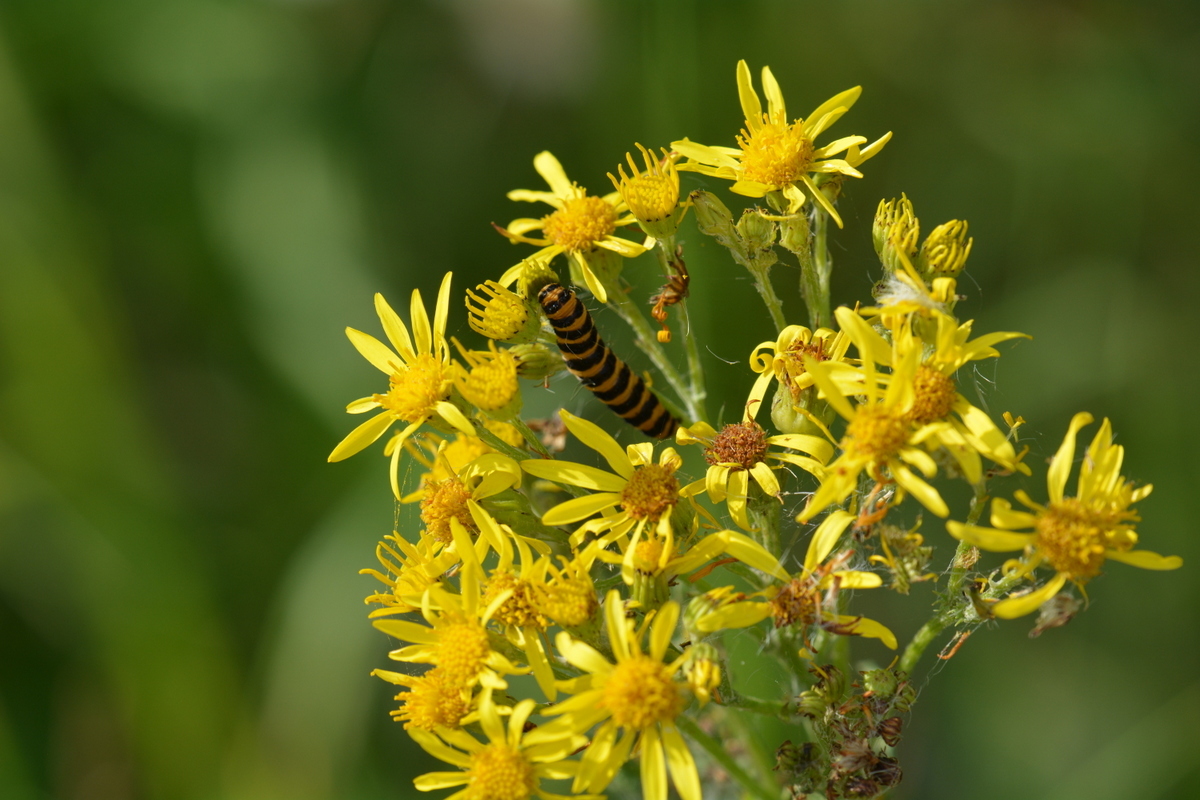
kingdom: Animalia
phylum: Arthropoda
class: Insecta
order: Lepidoptera
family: Erebidae
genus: Tyria
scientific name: Tyria jacobaeae
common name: Cinnabar
